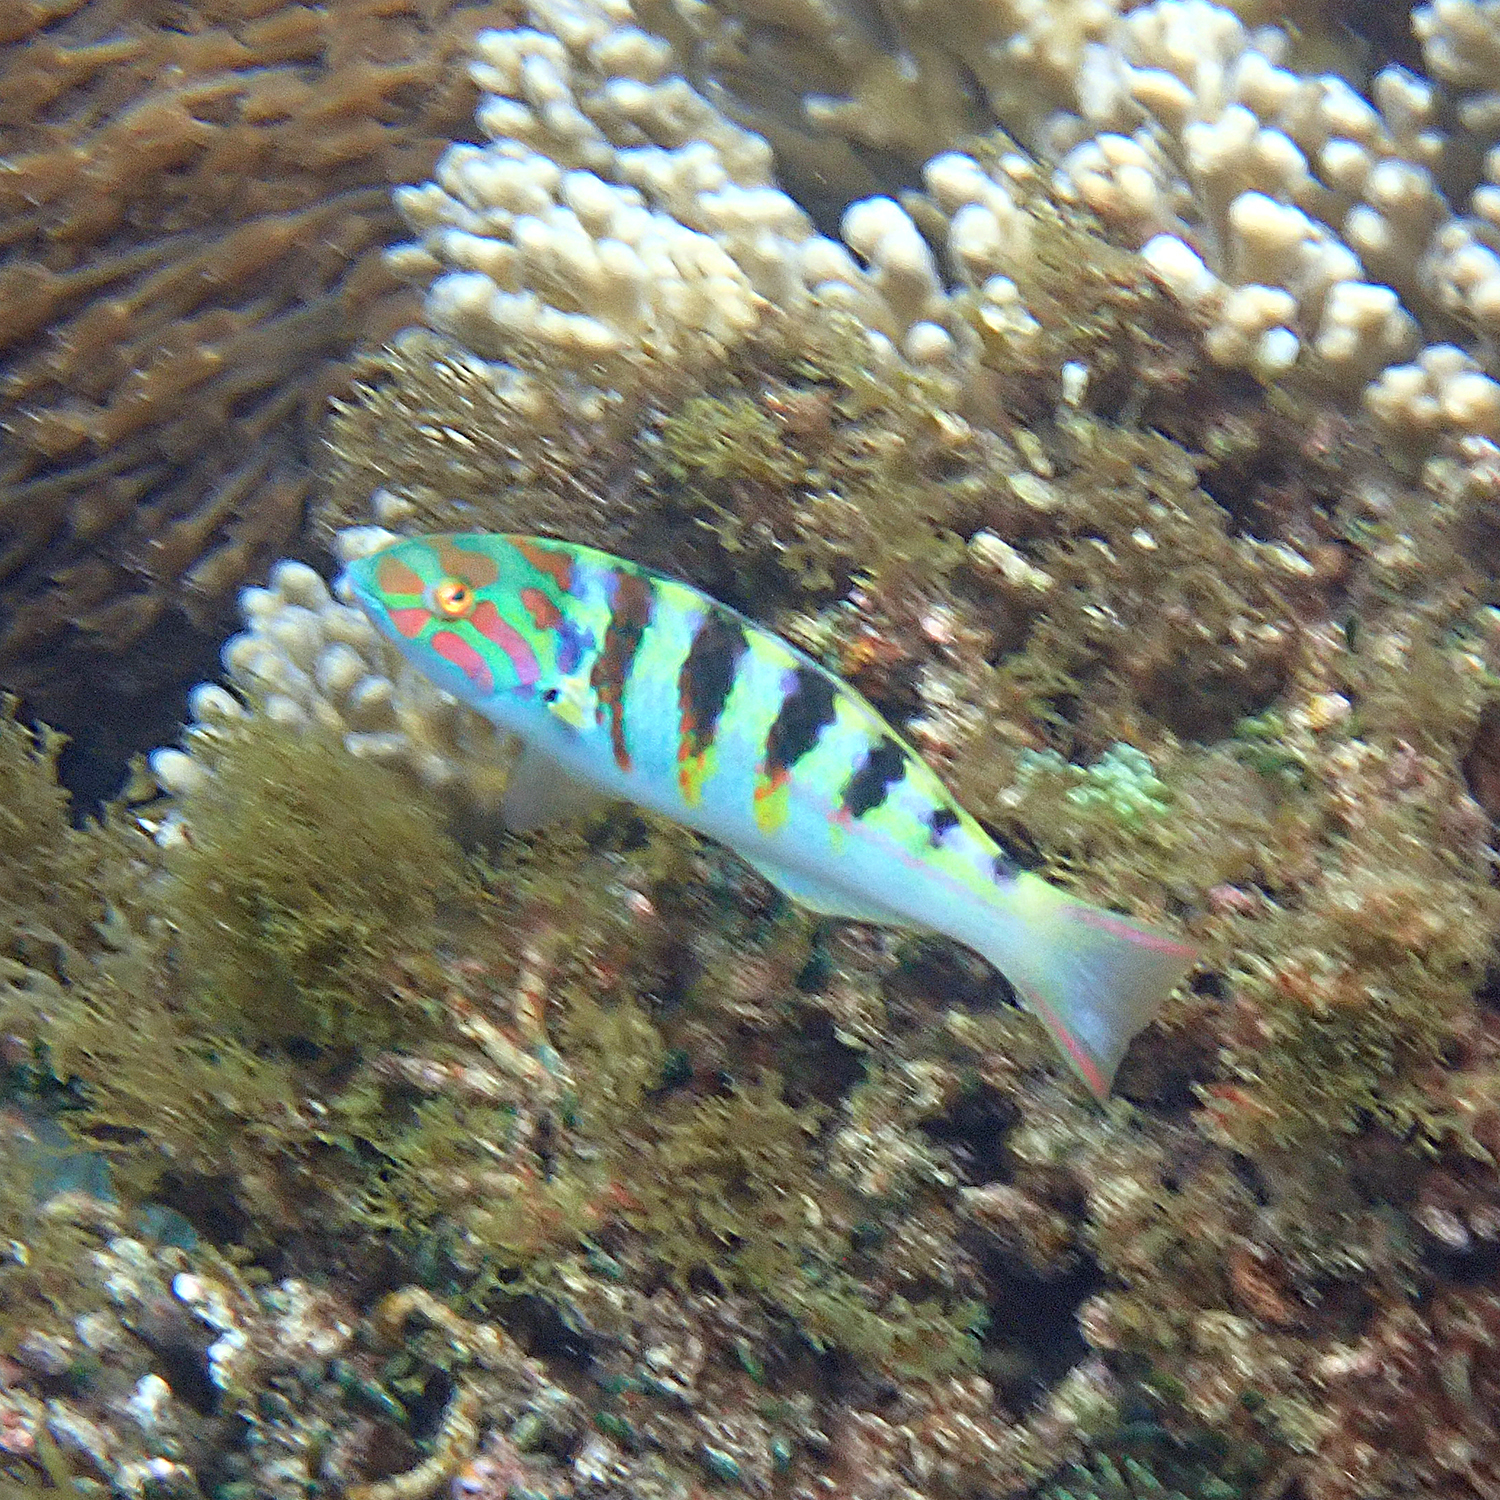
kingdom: Animalia
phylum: Chordata
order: Perciformes
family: Labridae
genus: Thalassoma
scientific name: Thalassoma hardwicke
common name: Sixbar wrasse
